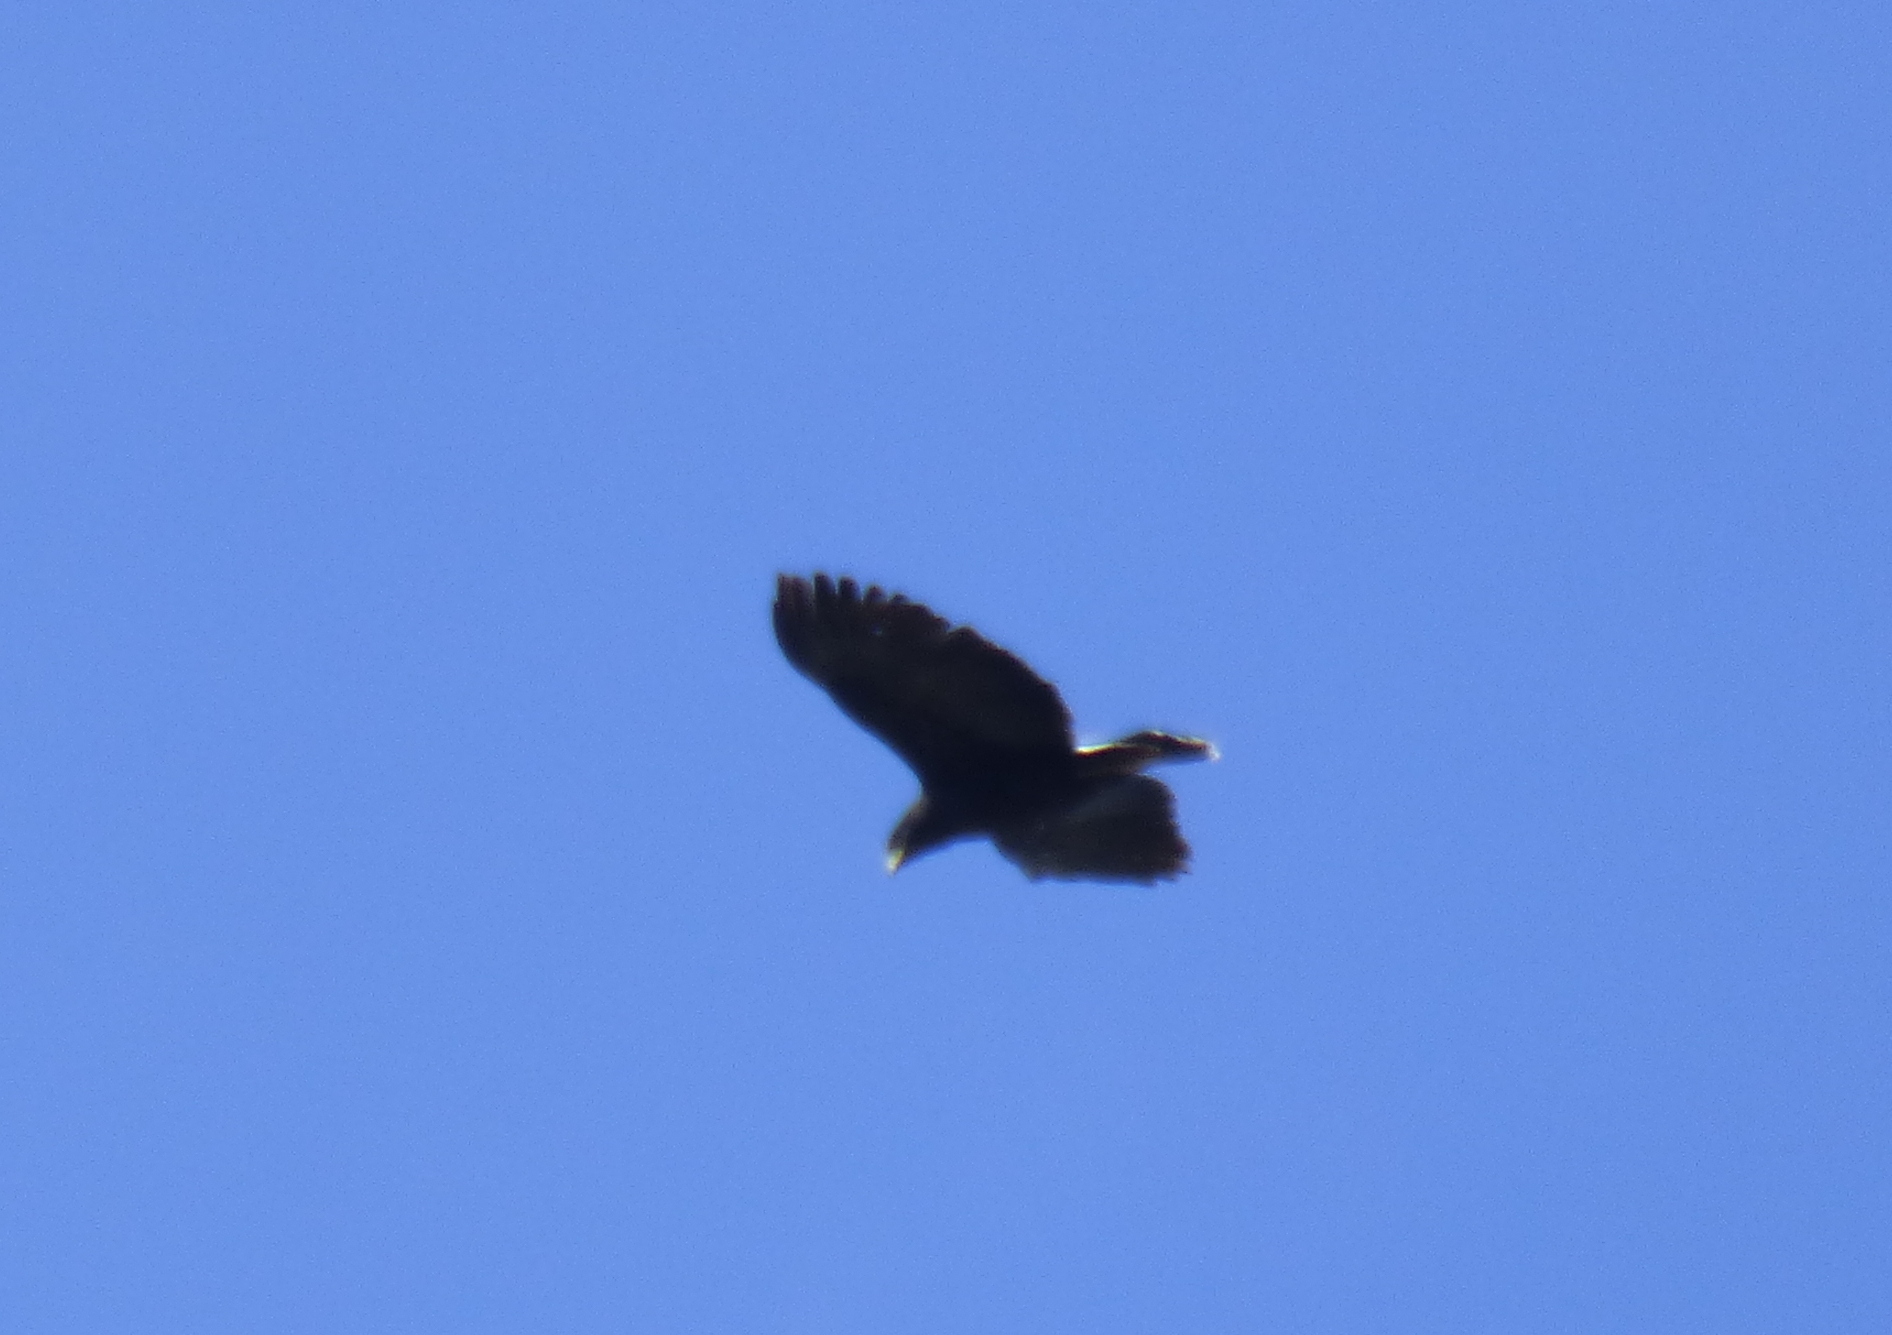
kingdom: Animalia
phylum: Chordata
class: Aves
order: Accipitriformes
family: Accipitridae
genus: Buteogallus
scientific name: Buteogallus urubitinga
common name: Great black hawk
